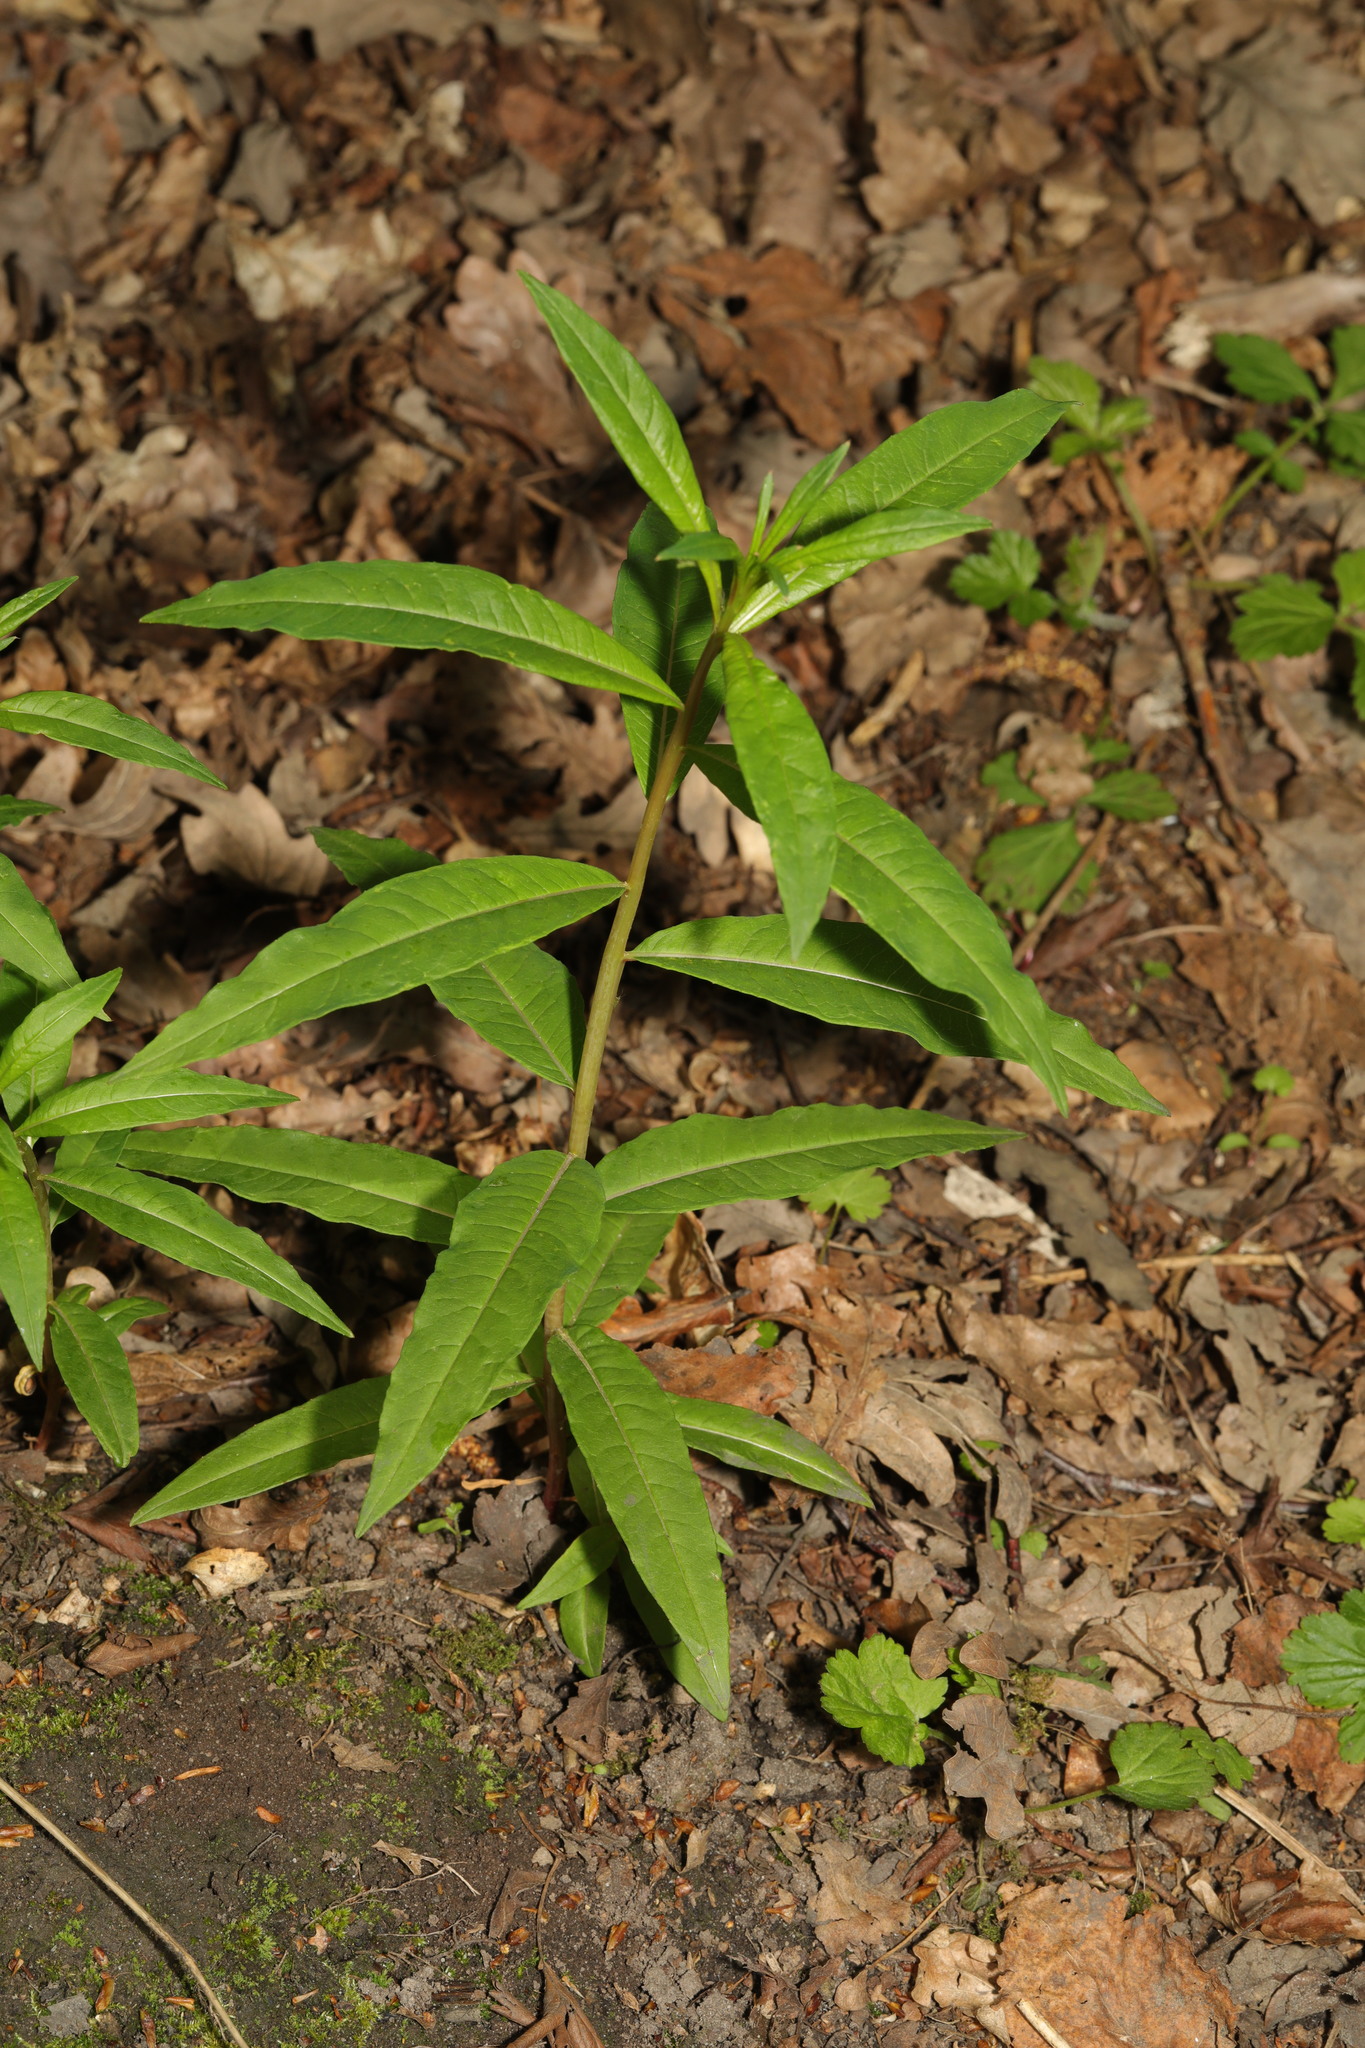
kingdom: Plantae
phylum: Tracheophyta
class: Magnoliopsida
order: Myrtales
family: Onagraceae
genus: Chamaenerion
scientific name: Chamaenerion angustifolium
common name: Fireweed
